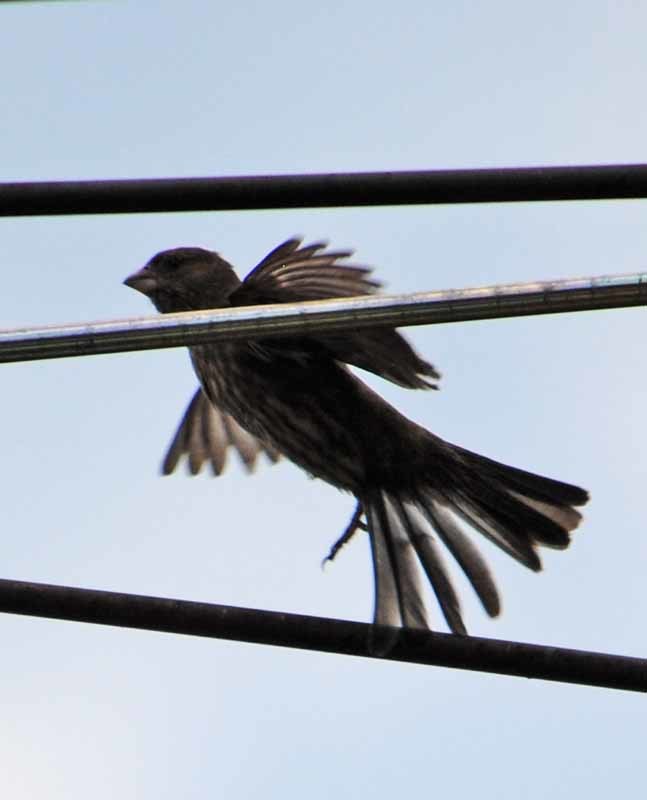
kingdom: Animalia
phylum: Chordata
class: Aves
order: Passeriformes
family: Fringillidae
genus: Haemorhous
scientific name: Haemorhous mexicanus
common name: House finch
